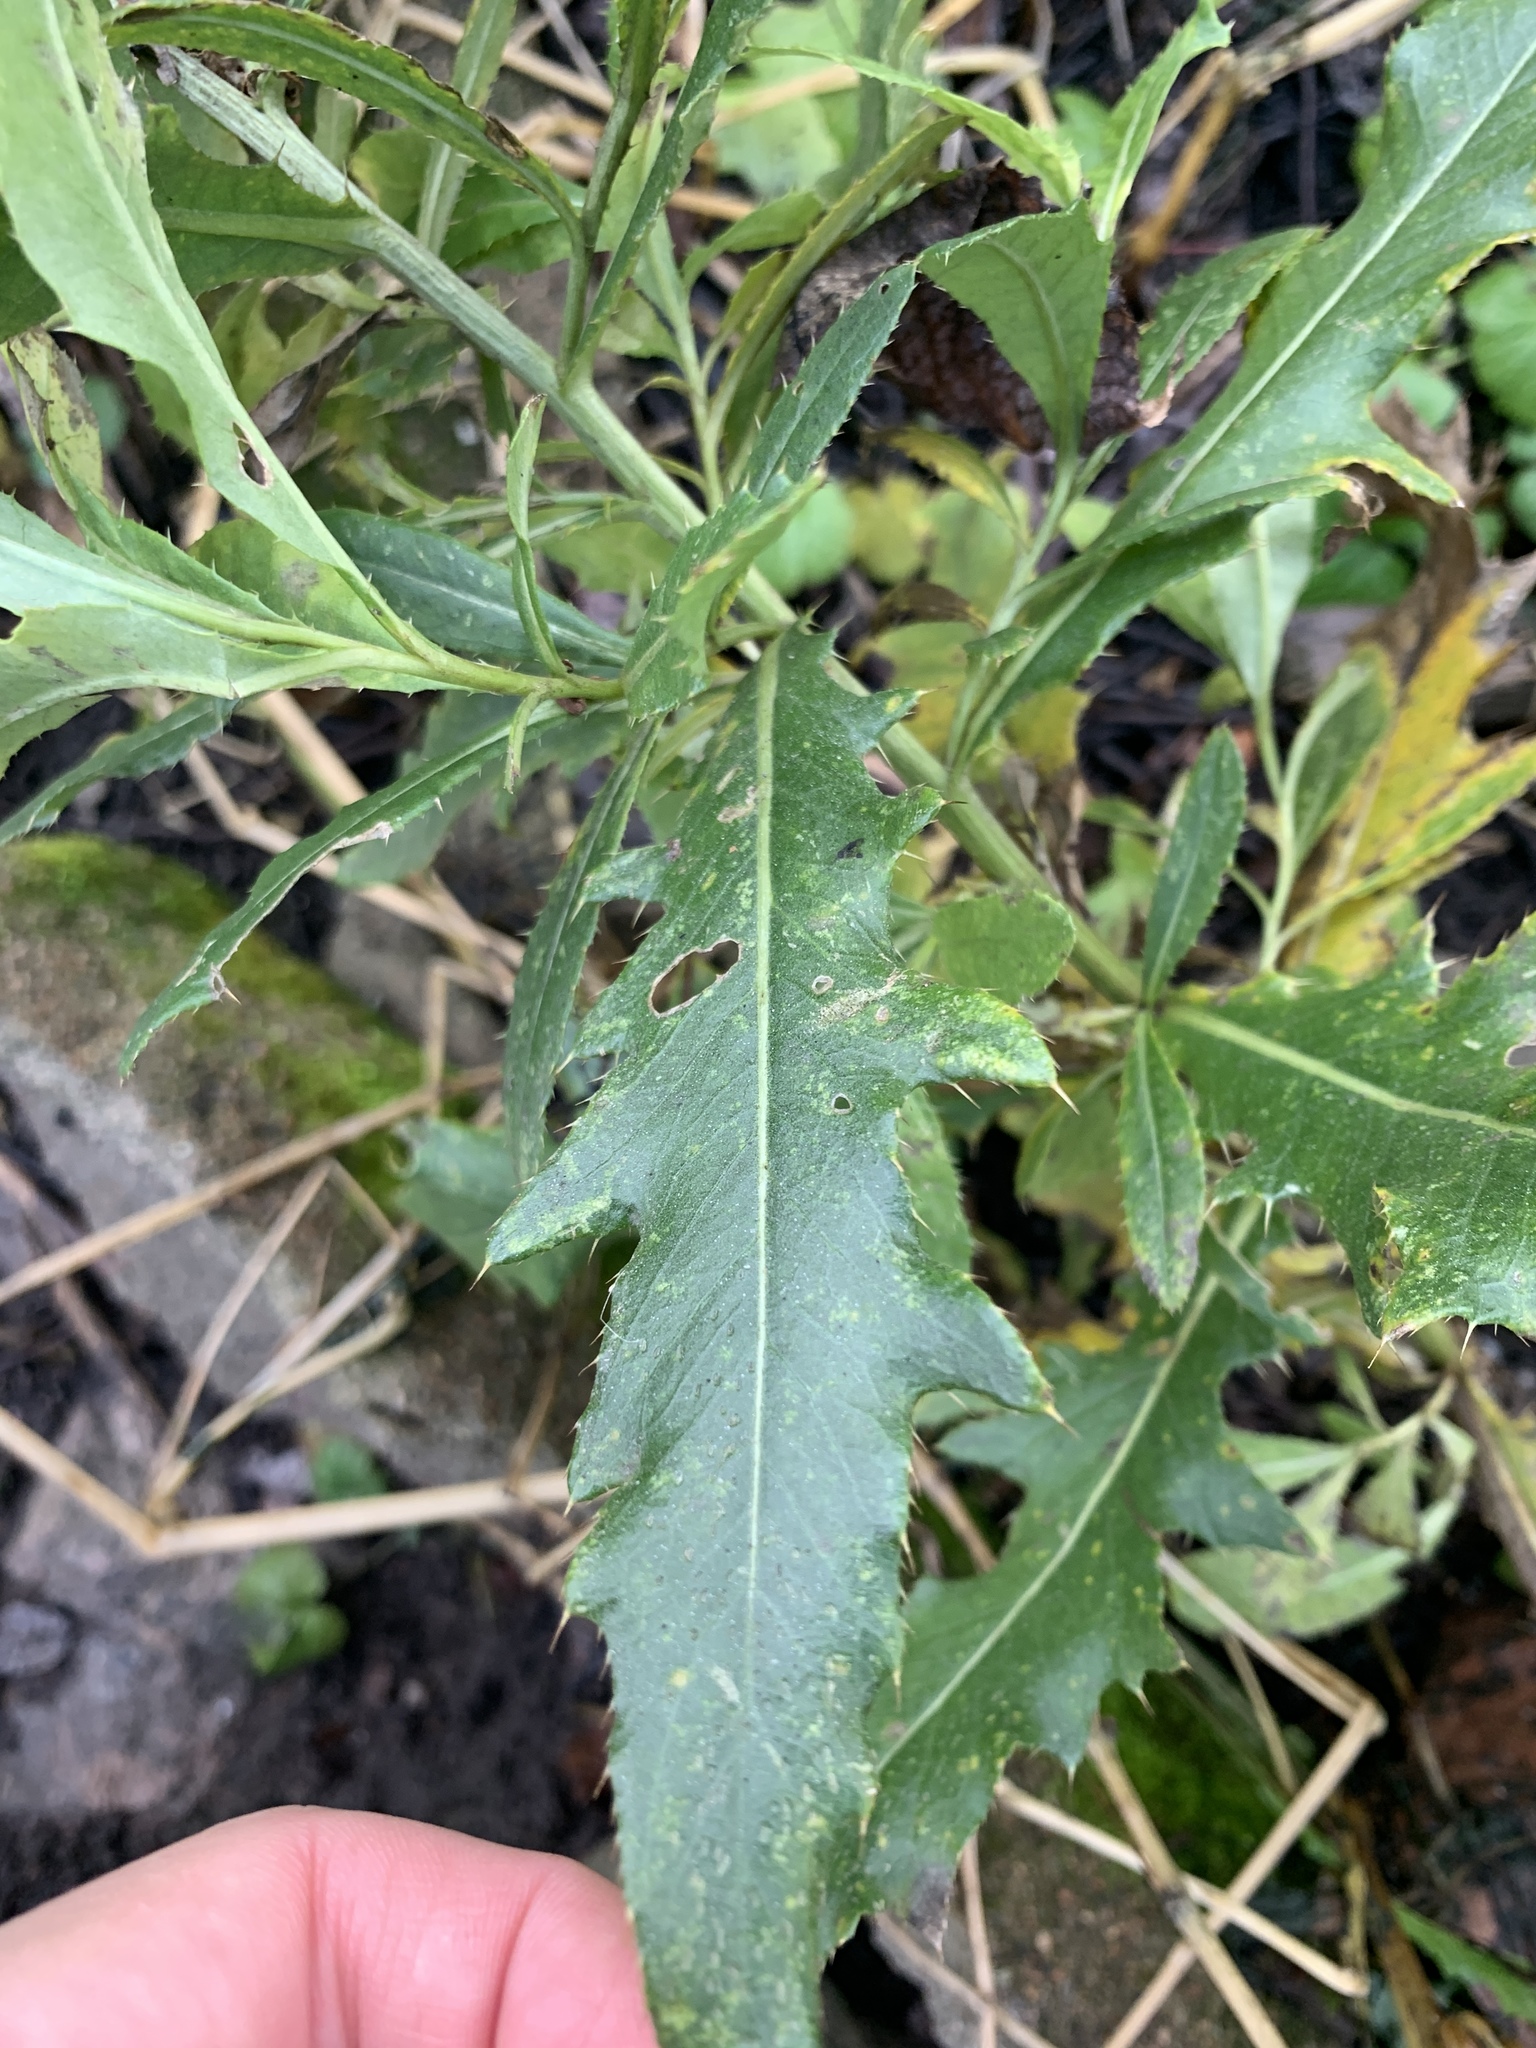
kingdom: Plantae
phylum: Tracheophyta
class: Magnoliopsida
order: Asterales
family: Asteraceae
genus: Cirsium
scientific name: Cirsium arvense
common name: Creeping thistle
